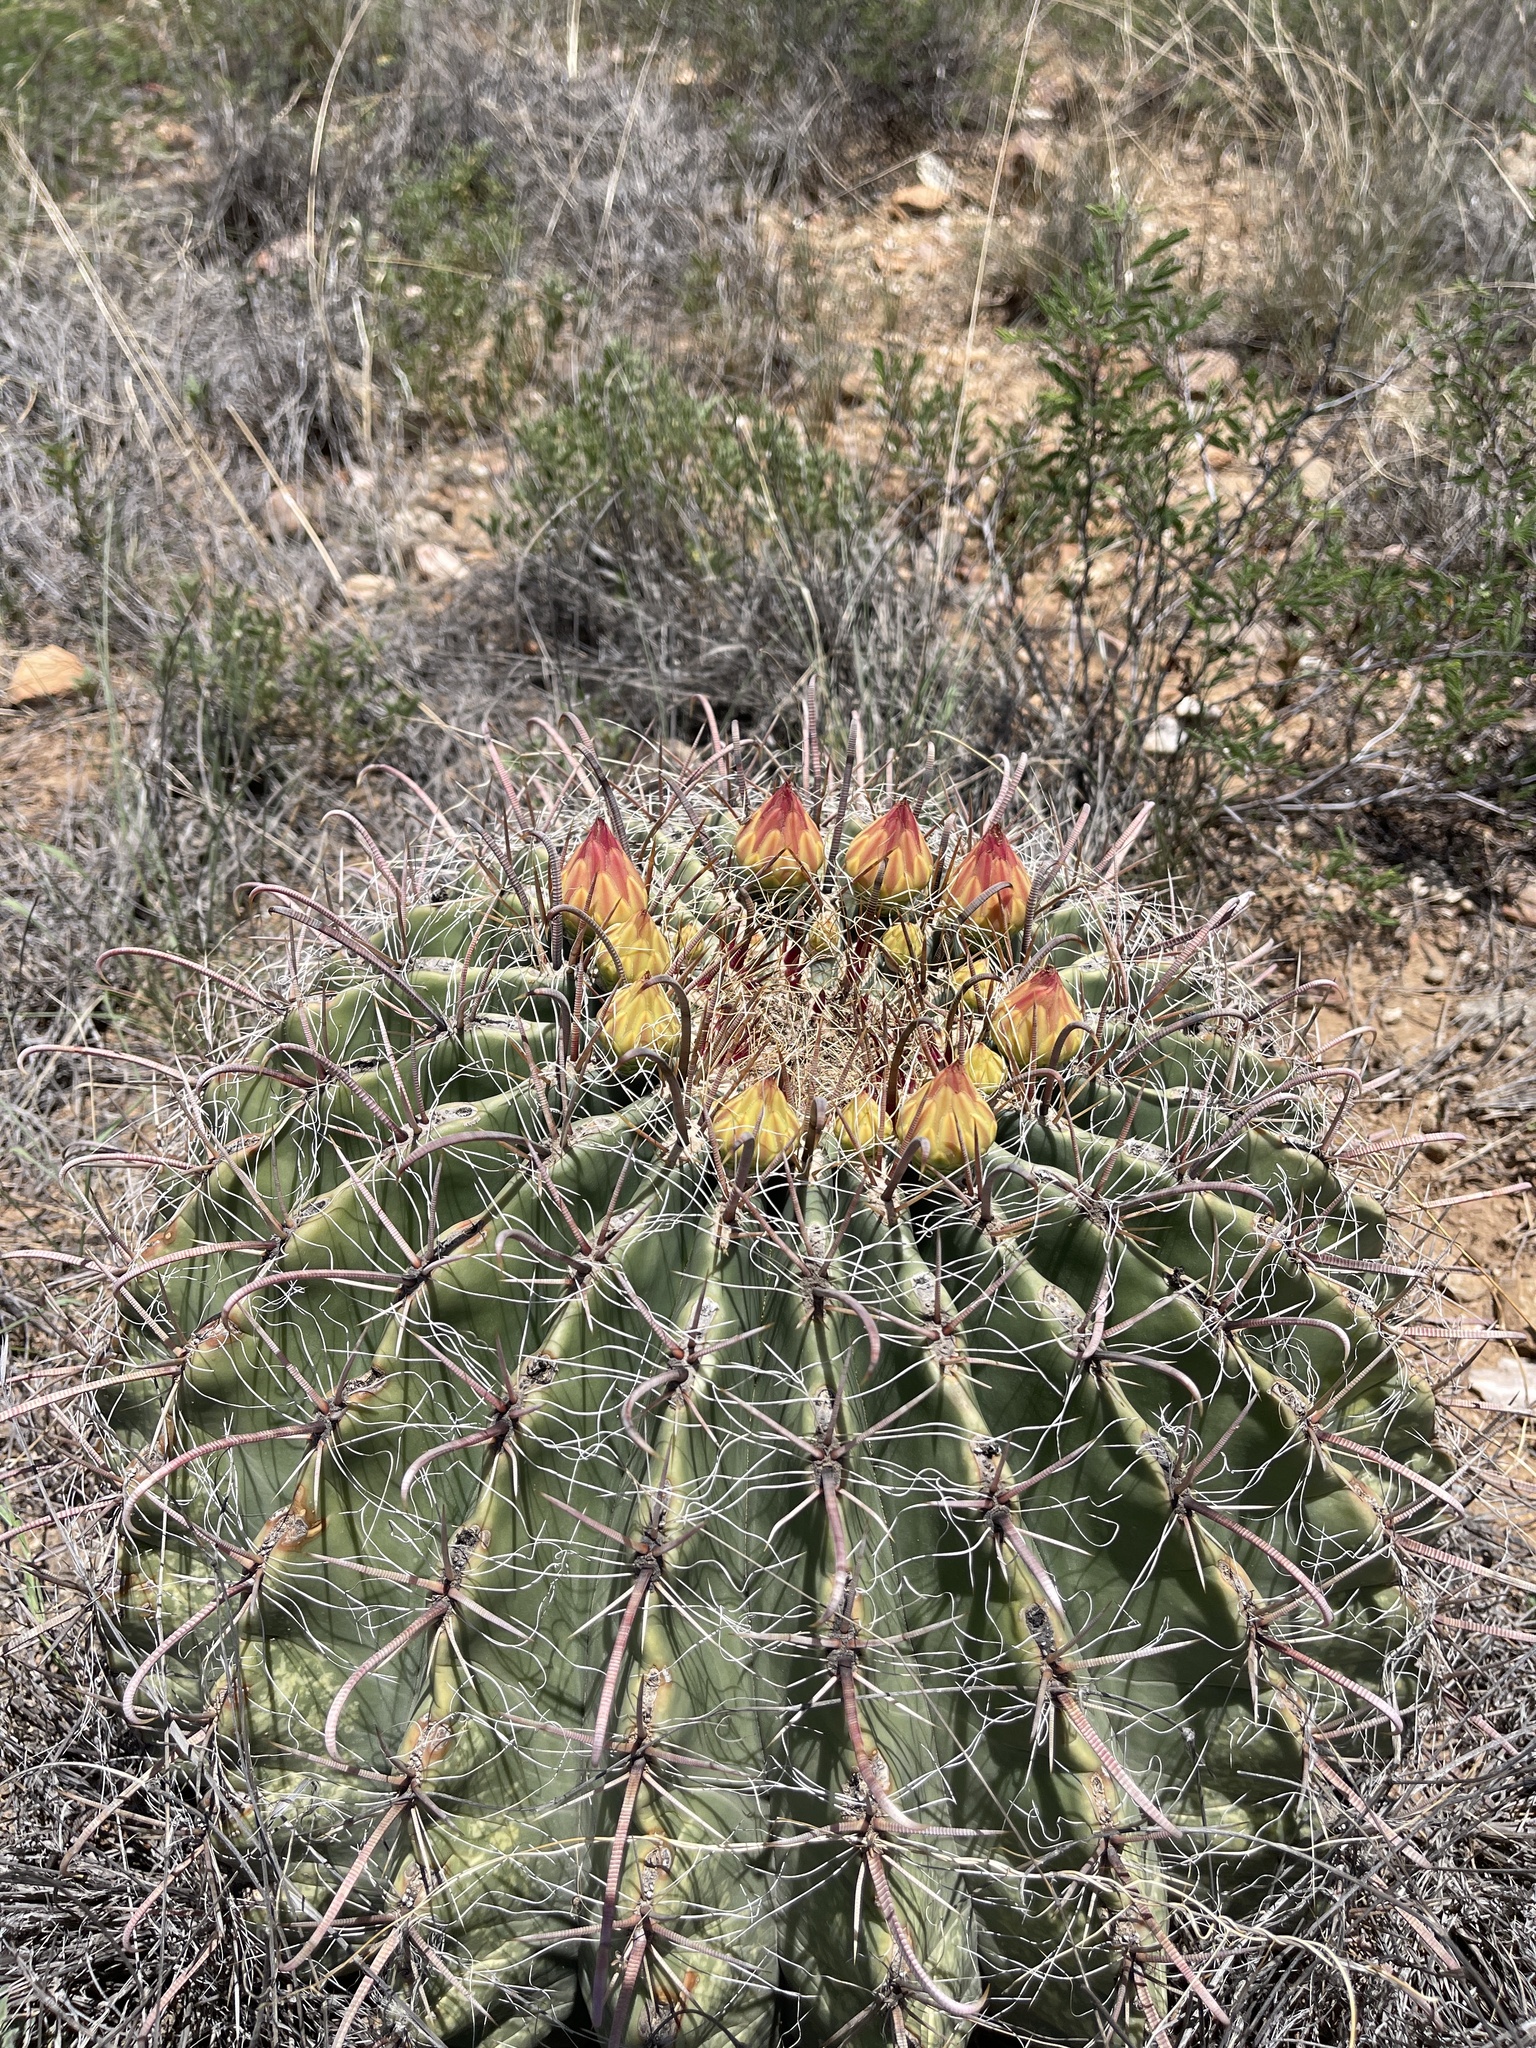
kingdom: Plantae
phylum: Tracheophyta
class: Magnoliopsida
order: Caryophyllales
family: Cactaceae
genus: Ferocactus
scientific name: Ferocactus wislizeni
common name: Candy barrel cactus
